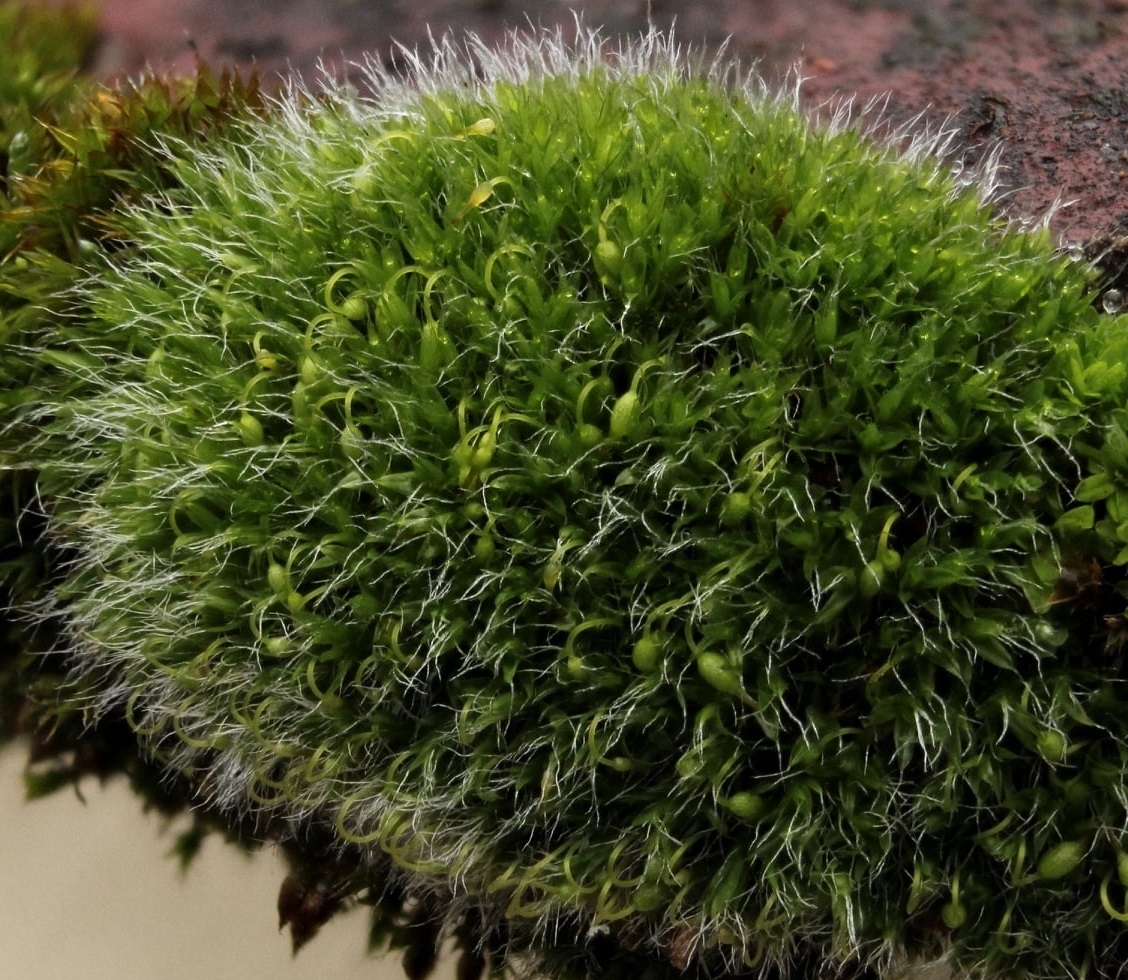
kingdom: Plantae
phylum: Bryophyta
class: Bryopsida
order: Grimmiales
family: Grimmiaceae
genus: Grimmia
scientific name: Grimmia pulvinata
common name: Grey-cushioned grimmia
